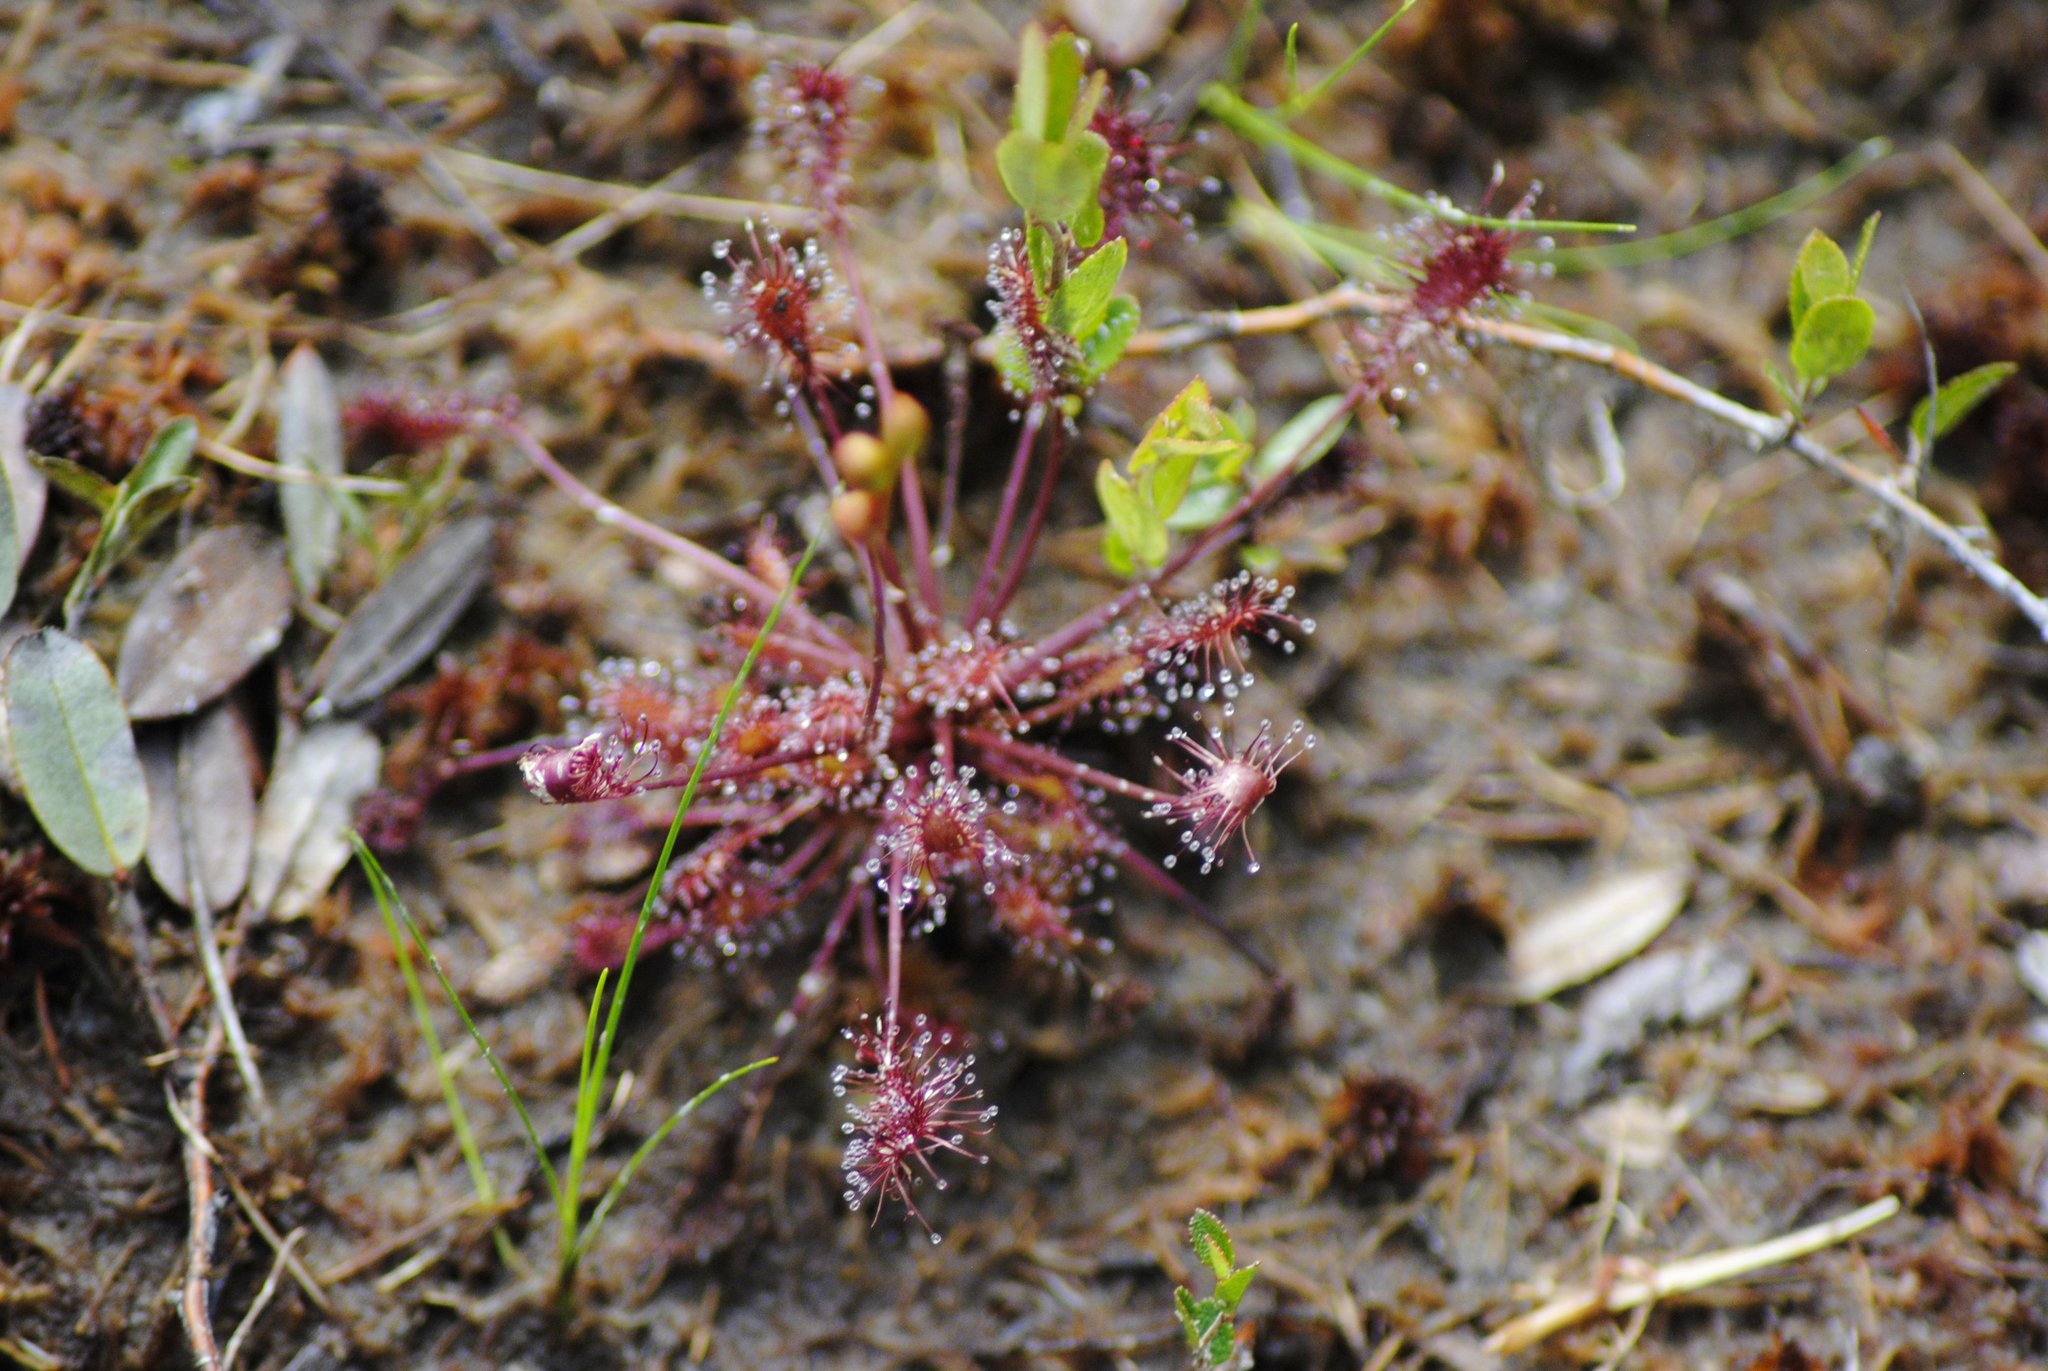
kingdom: Plantae
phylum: Tracheophyta
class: Magnoliopsida
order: Caryophyllales
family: Droseraceae
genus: Drosera
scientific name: Drosera intermedia
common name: Oblong-leaved sundew
